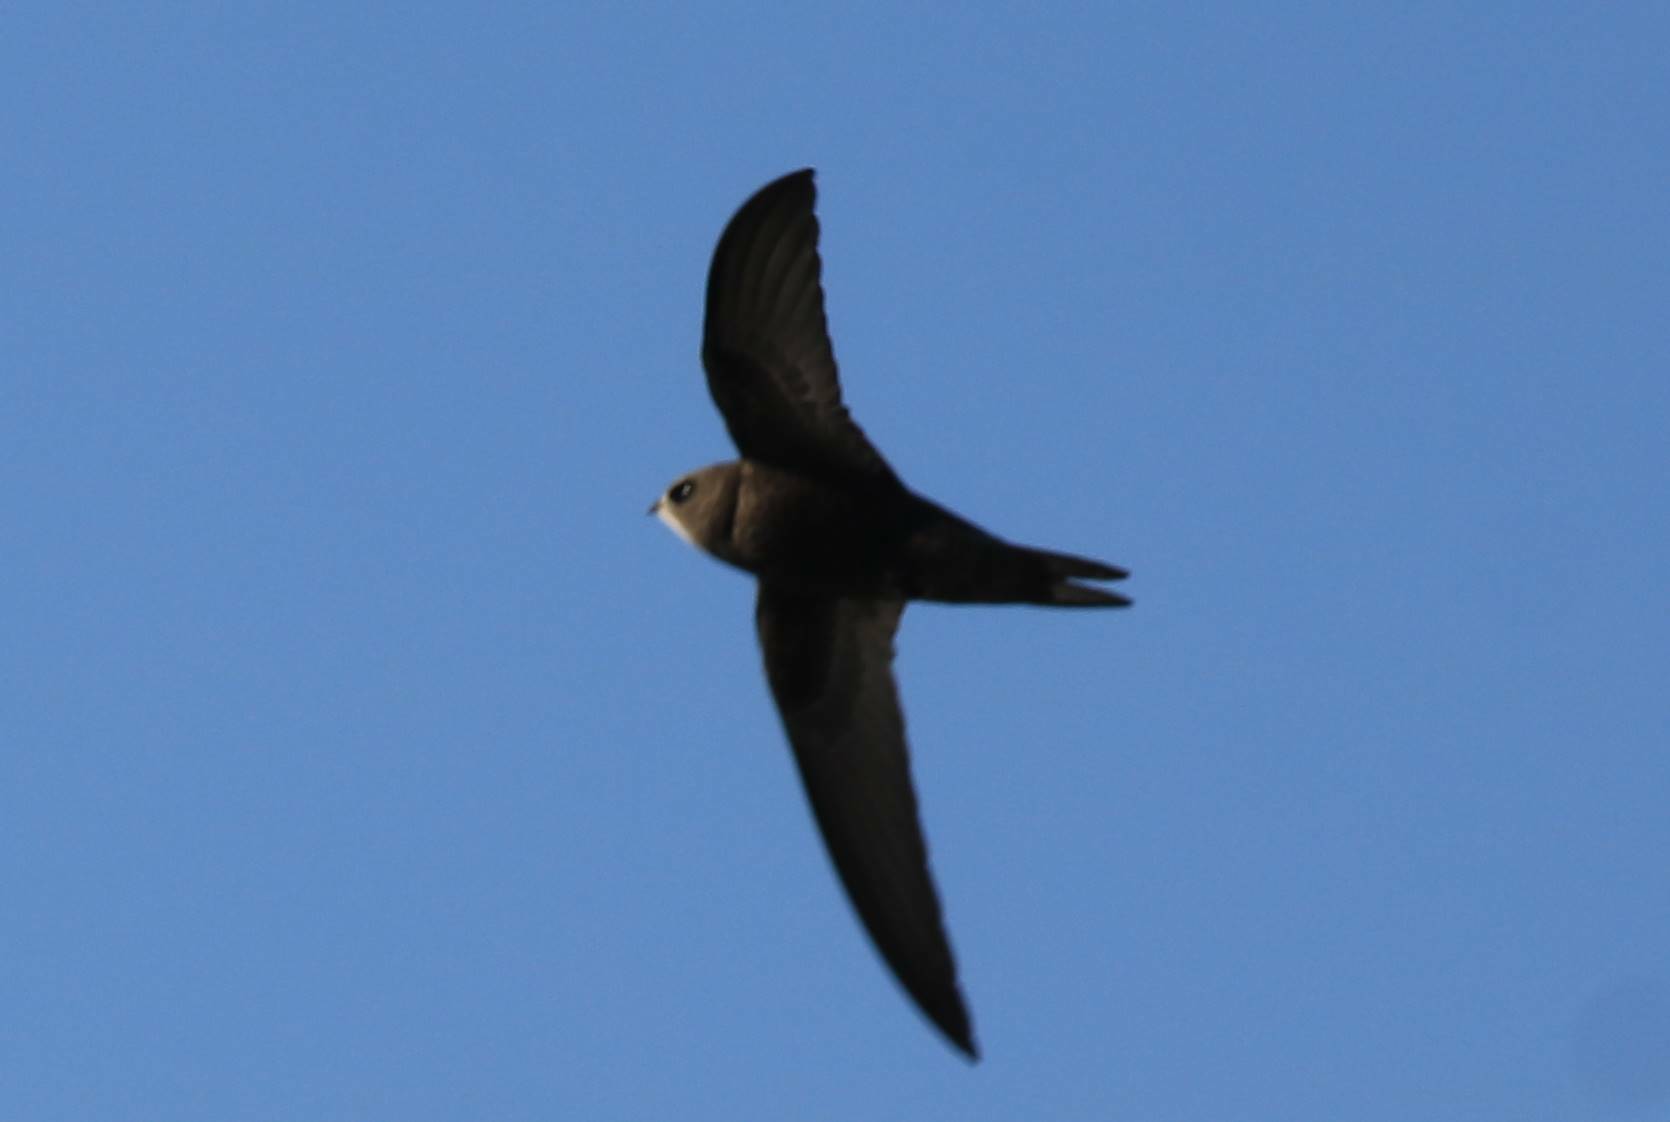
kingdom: Animalia
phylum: Chordata
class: Aves
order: Apodiformes
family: Apodidae
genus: Apus
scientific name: Apus apus
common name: Common swift
